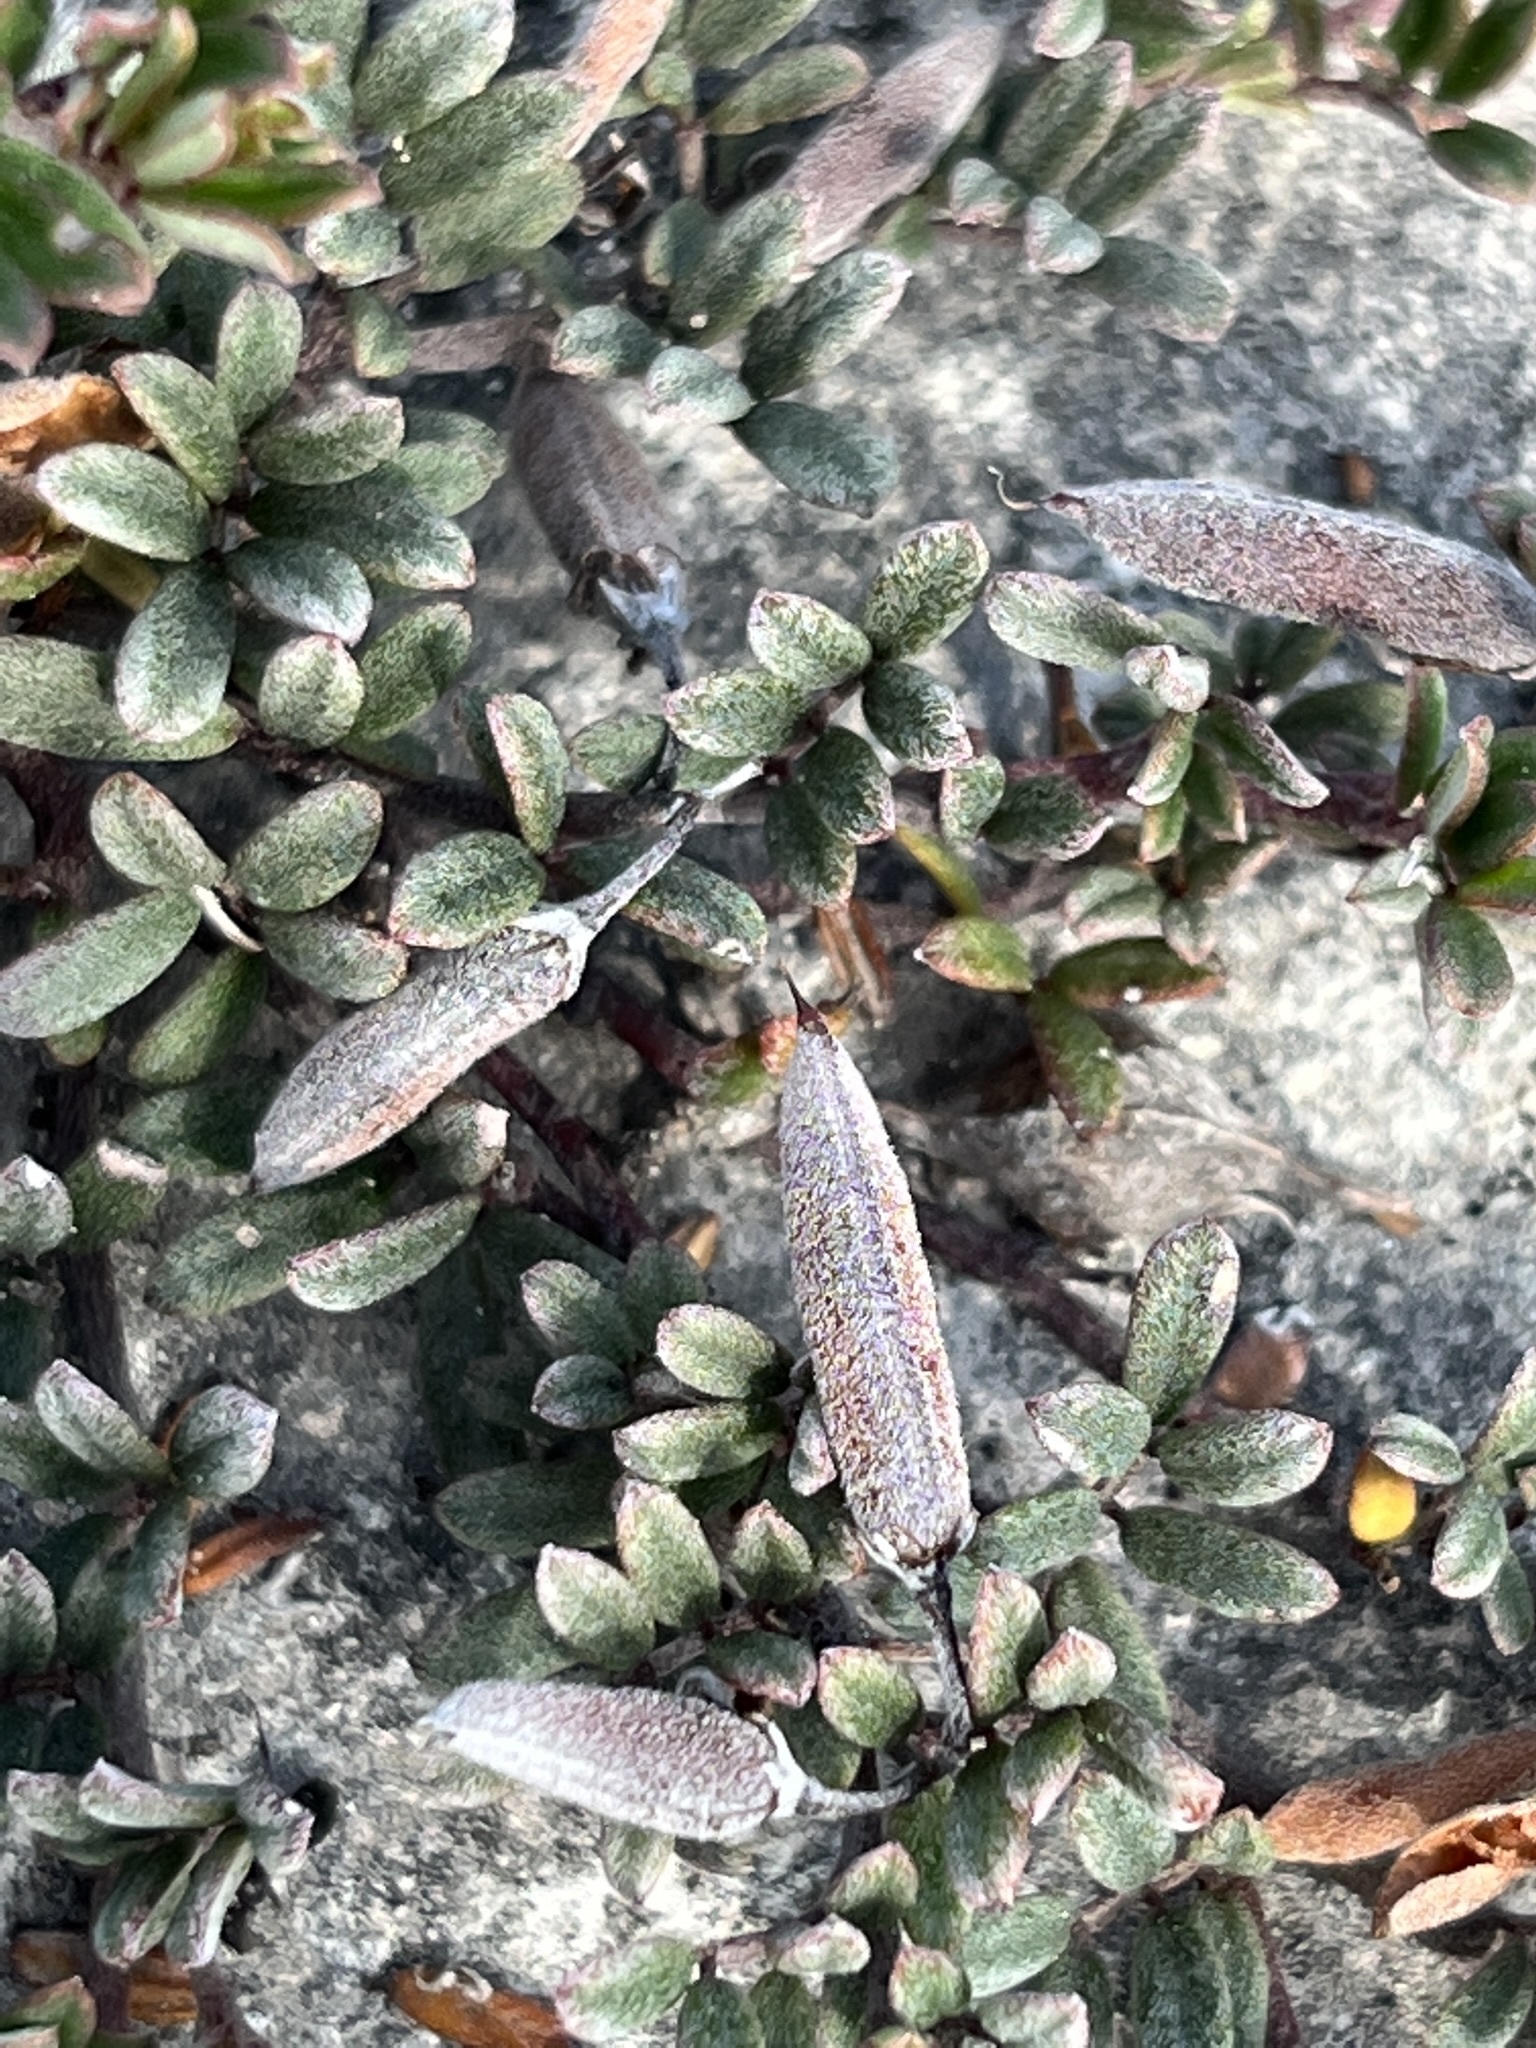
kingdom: Plantae
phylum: Tracheophyta
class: Magnoliopsida
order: Fabales
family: Fabaceae
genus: Indigofera
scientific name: Indigofera
